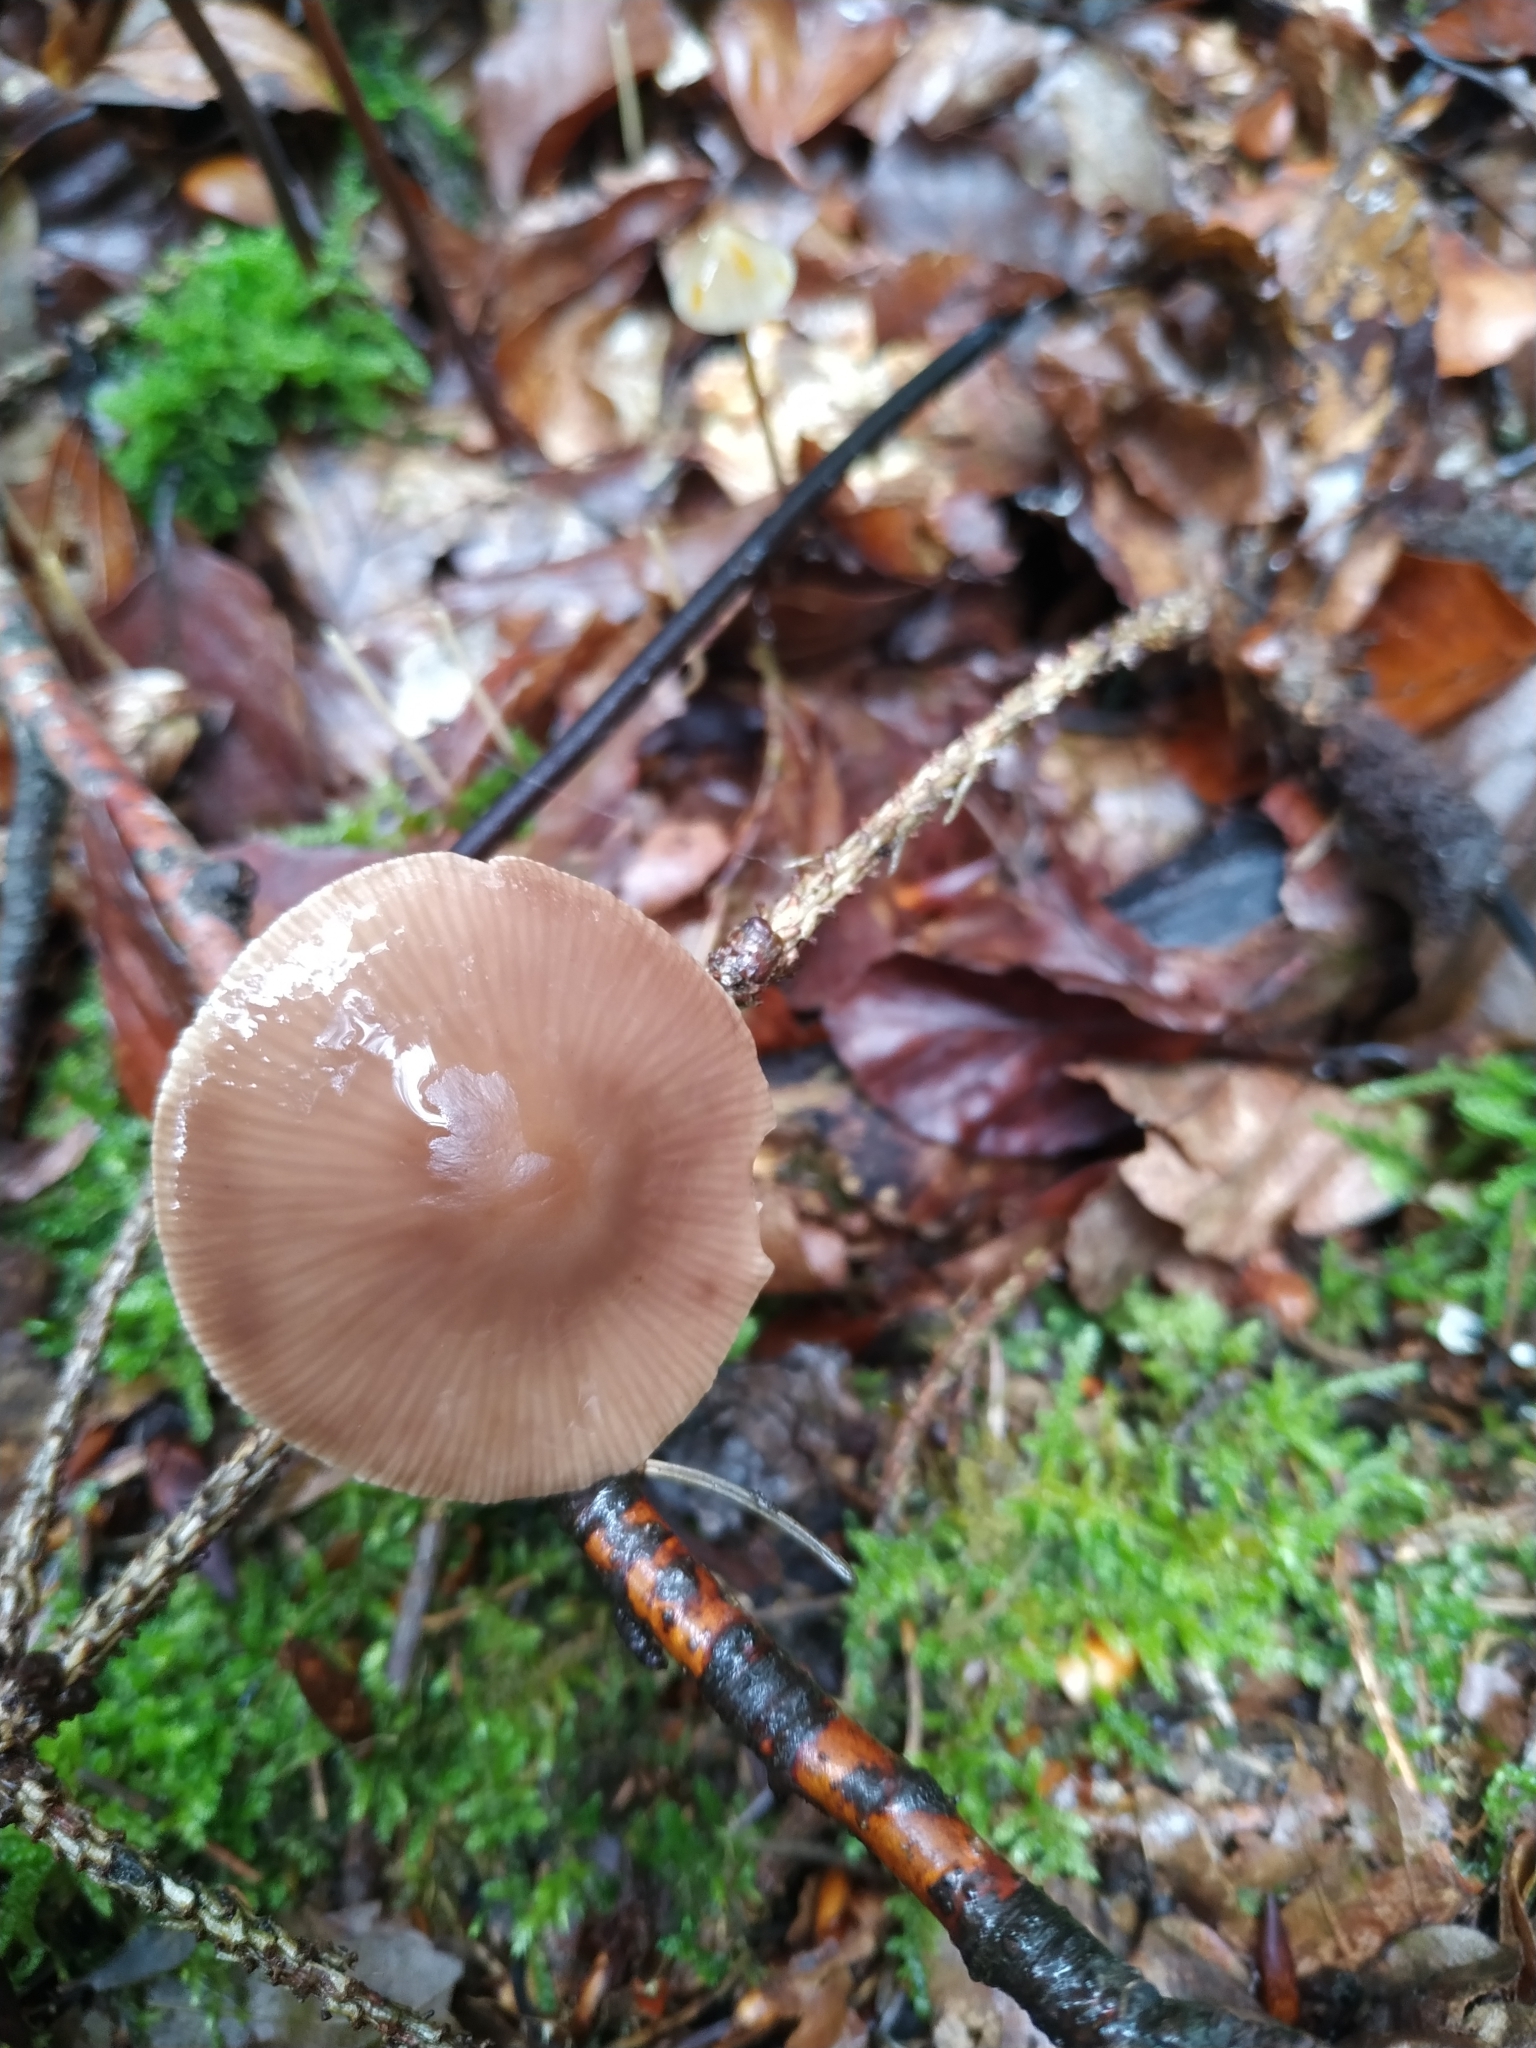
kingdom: Fungi
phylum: Basidiomycota
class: Agaricomycetes
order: Agaricales
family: Omphalotaceae
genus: Mycetinis
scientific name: Mycetinis alliaceus
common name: Garlic parachute
